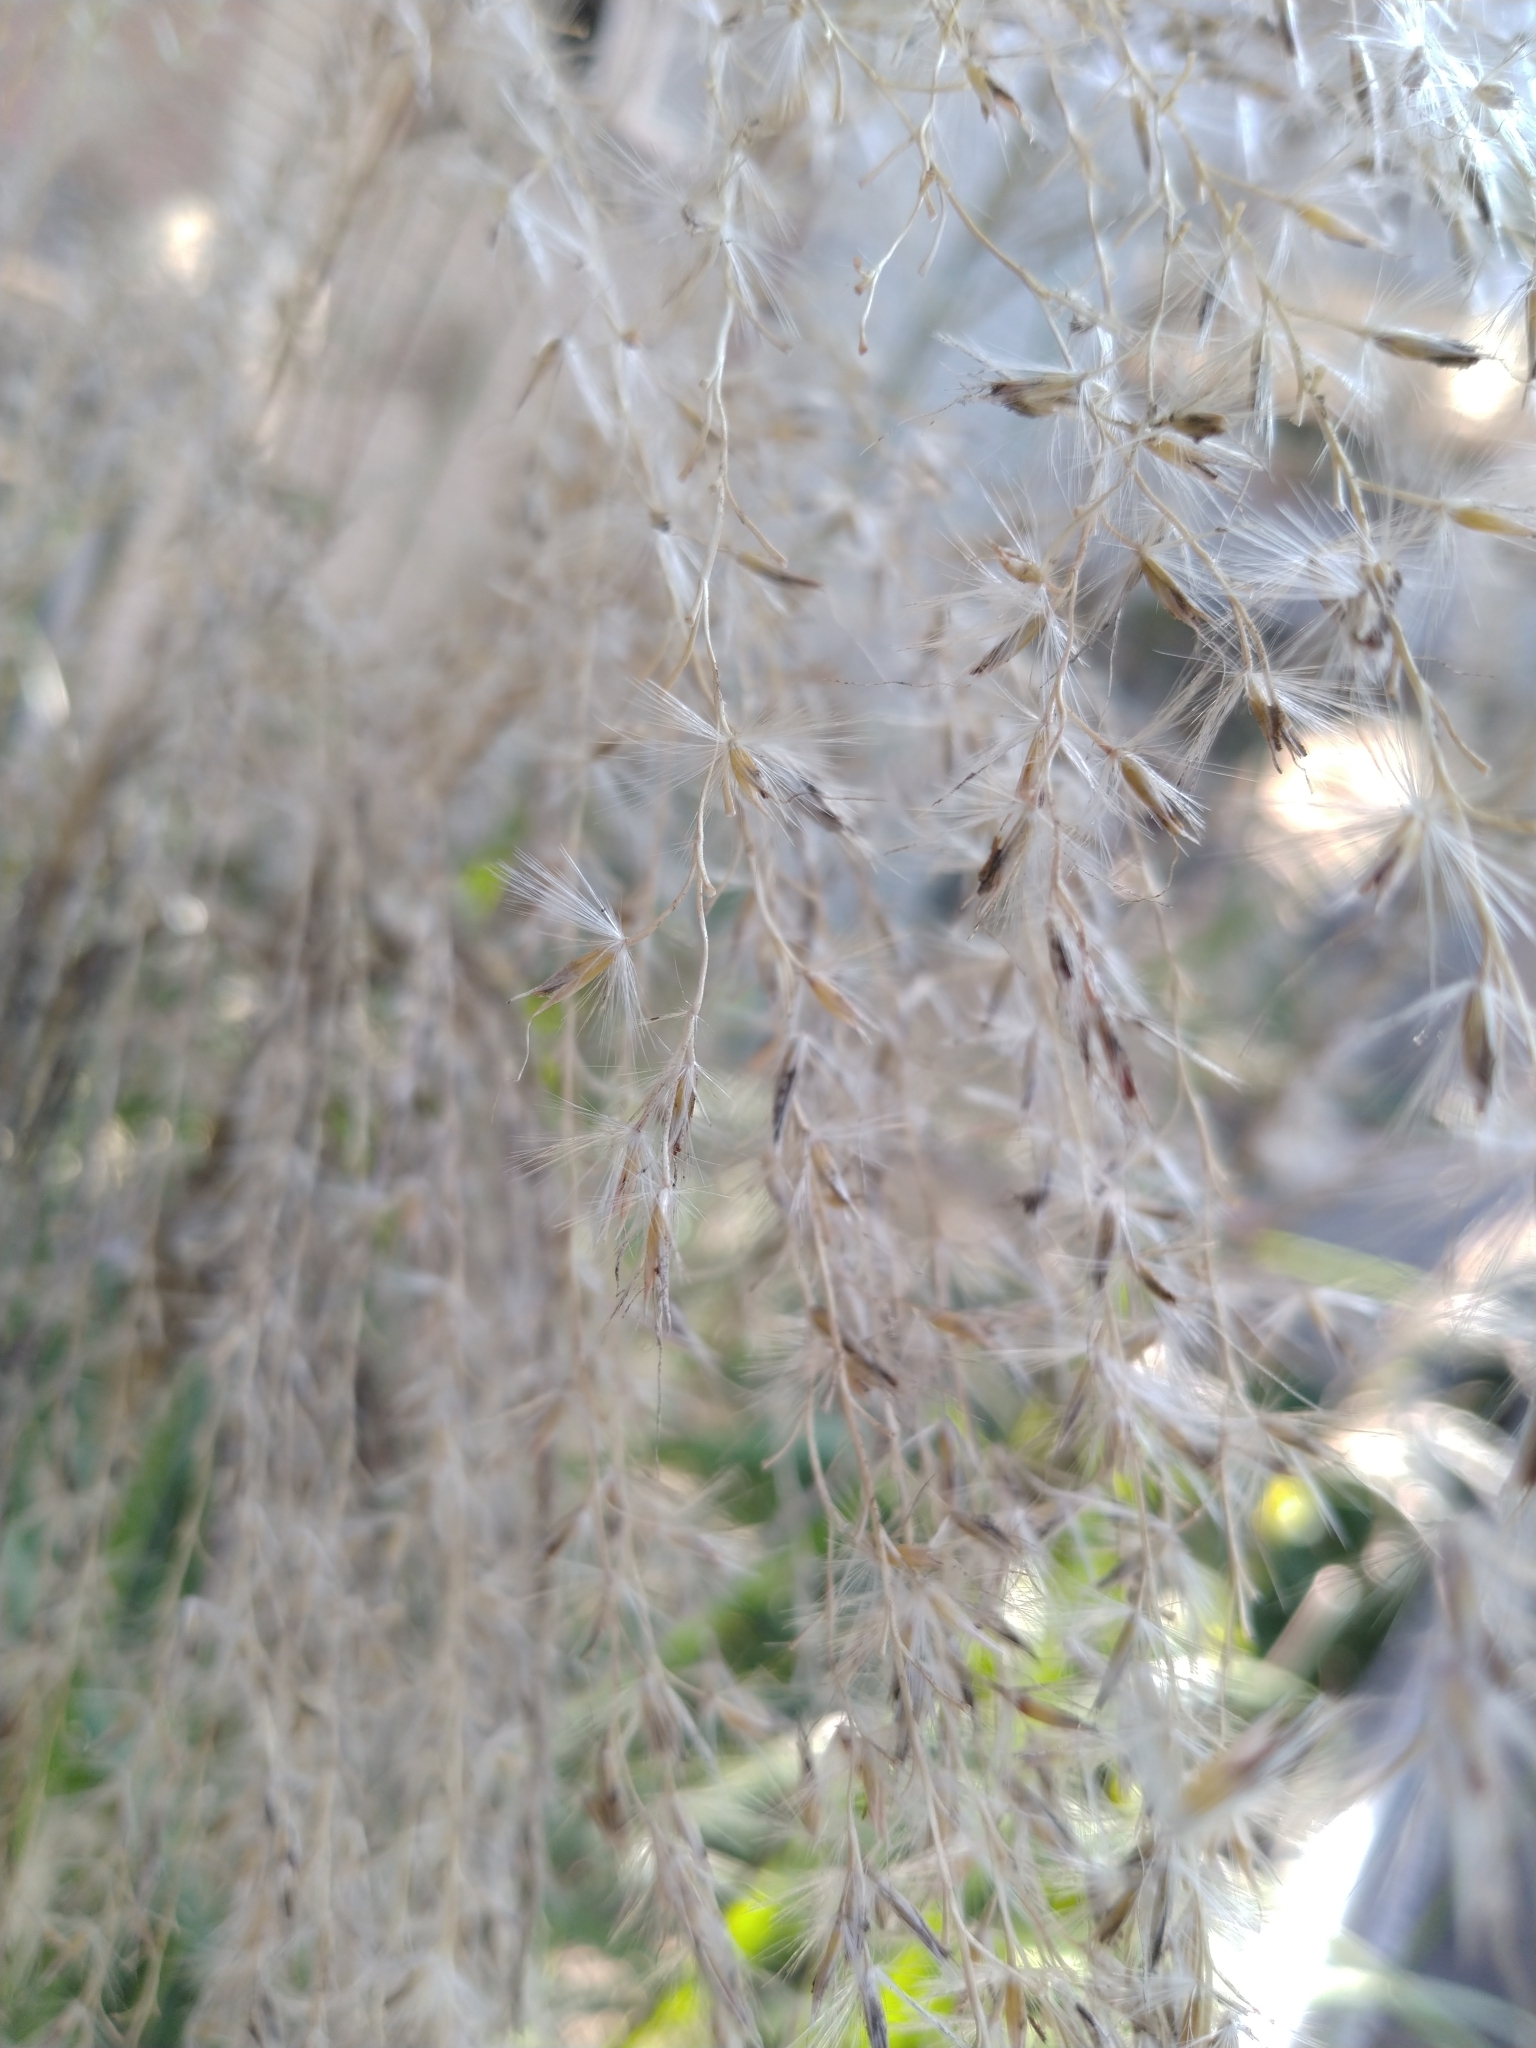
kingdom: Plantae
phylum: Tracheophyta
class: Liliopsida
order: Poales
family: Poaceae
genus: Miscanthus
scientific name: Miscanthus sinensis
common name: Chinese silvergrass
